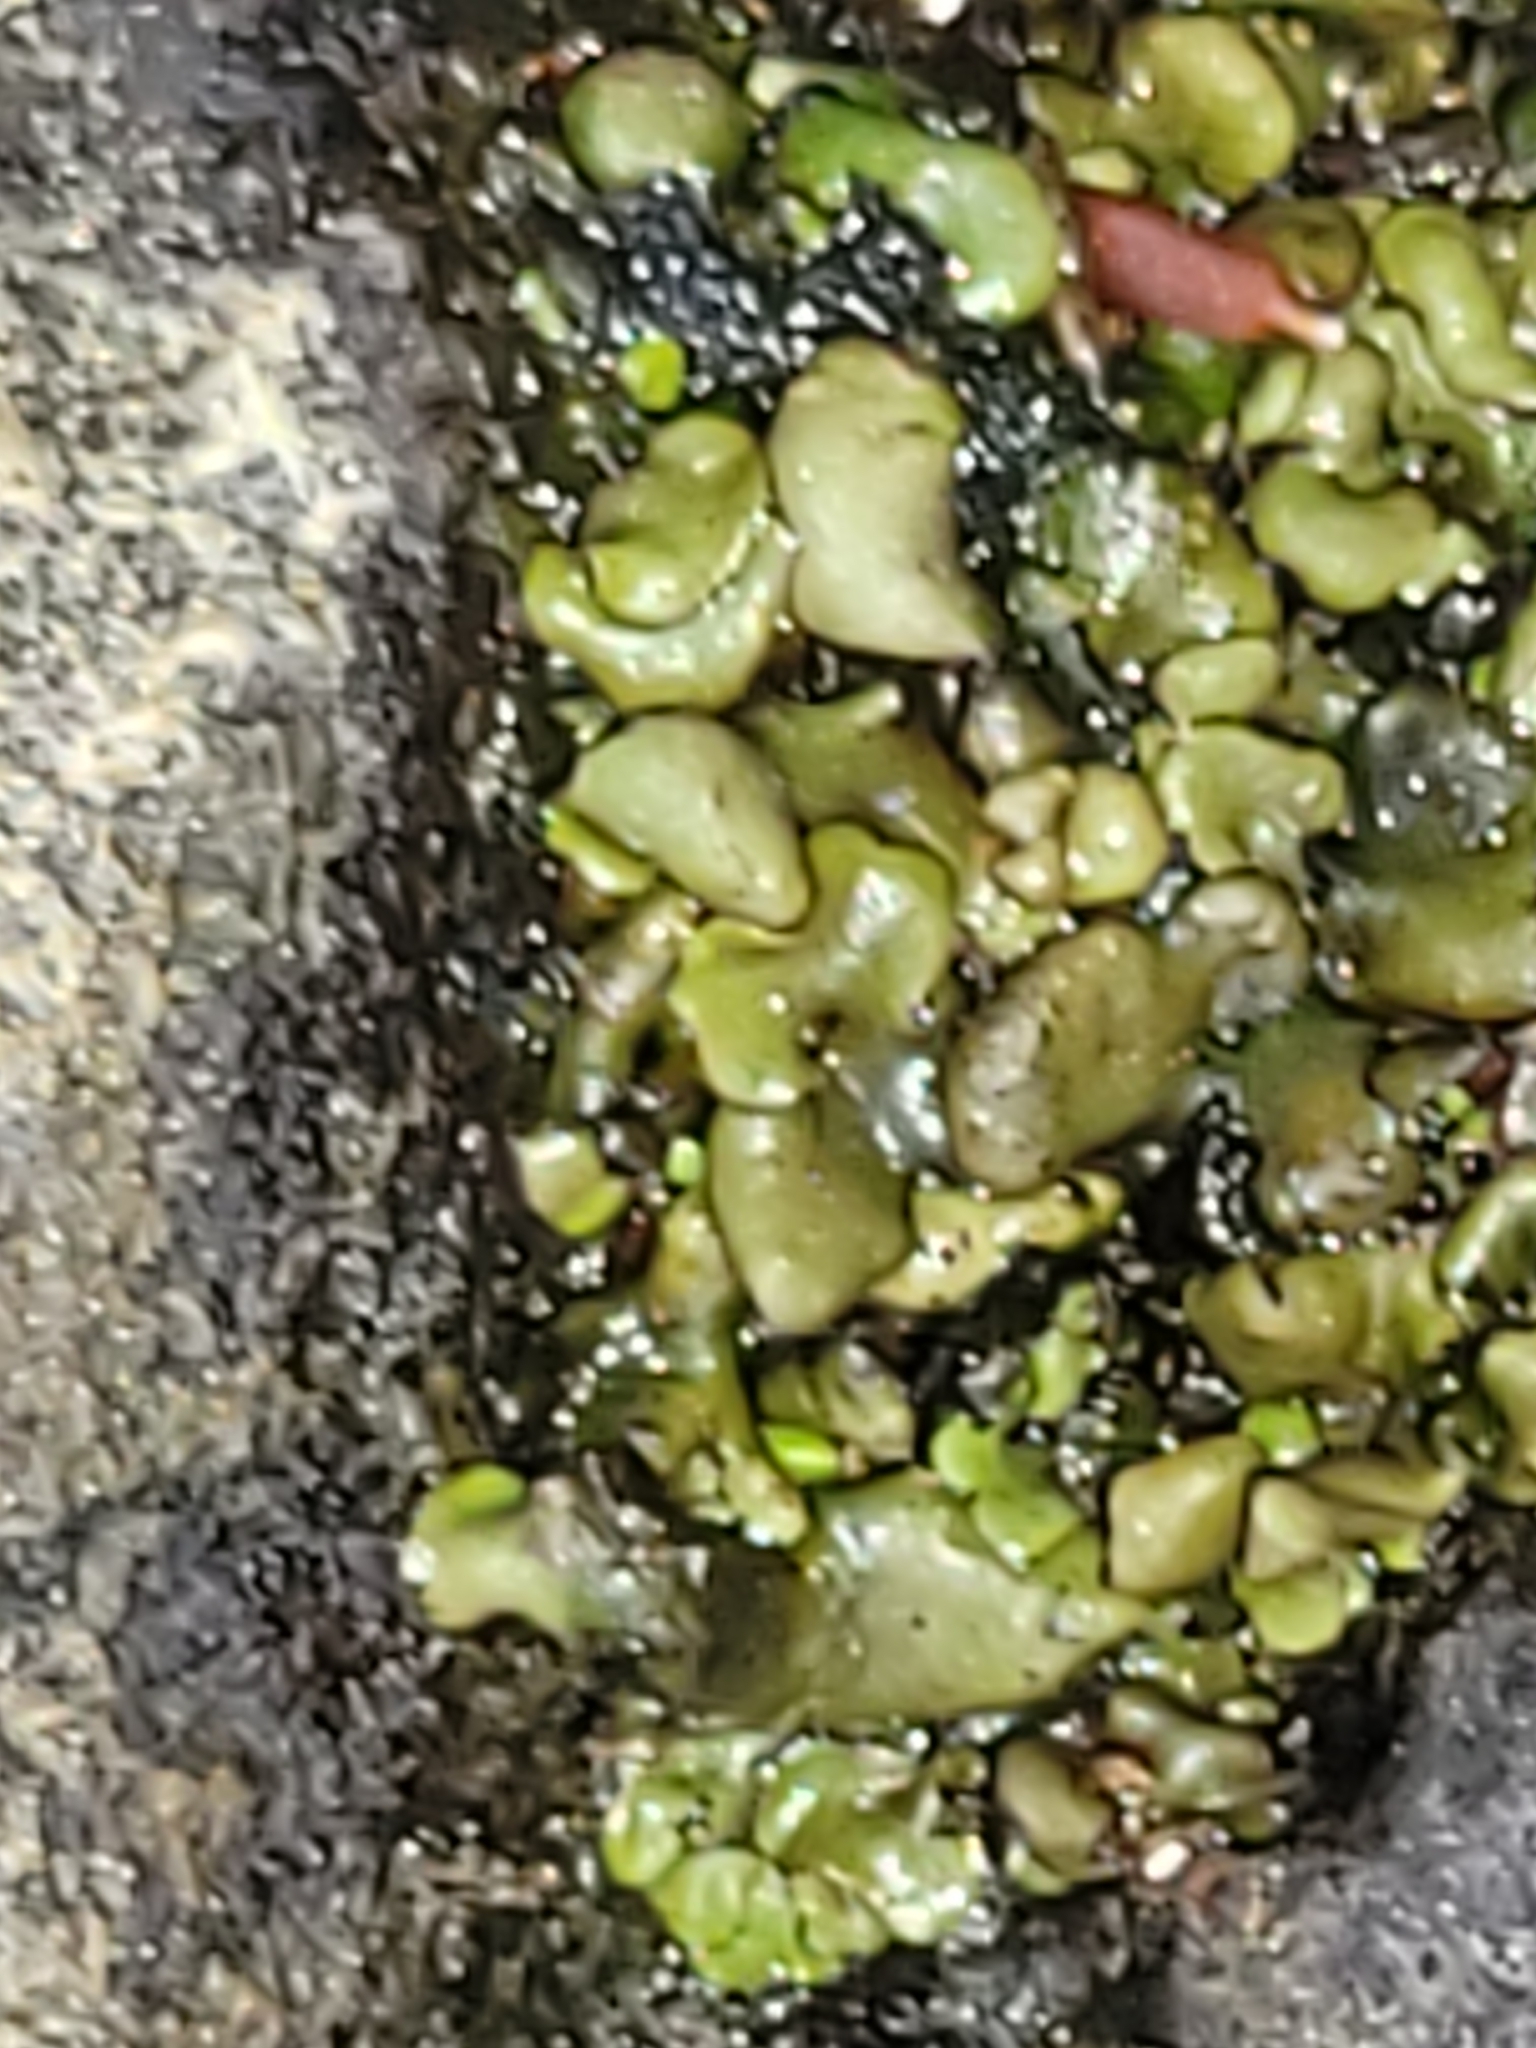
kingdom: Fungi
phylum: Ascomycota
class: Eurotiomycetes
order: Verrucariales
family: Verrucariaceae
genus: Dermatocarpon
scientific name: Dermatocarpon luridum
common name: Brook stippleback lichen
